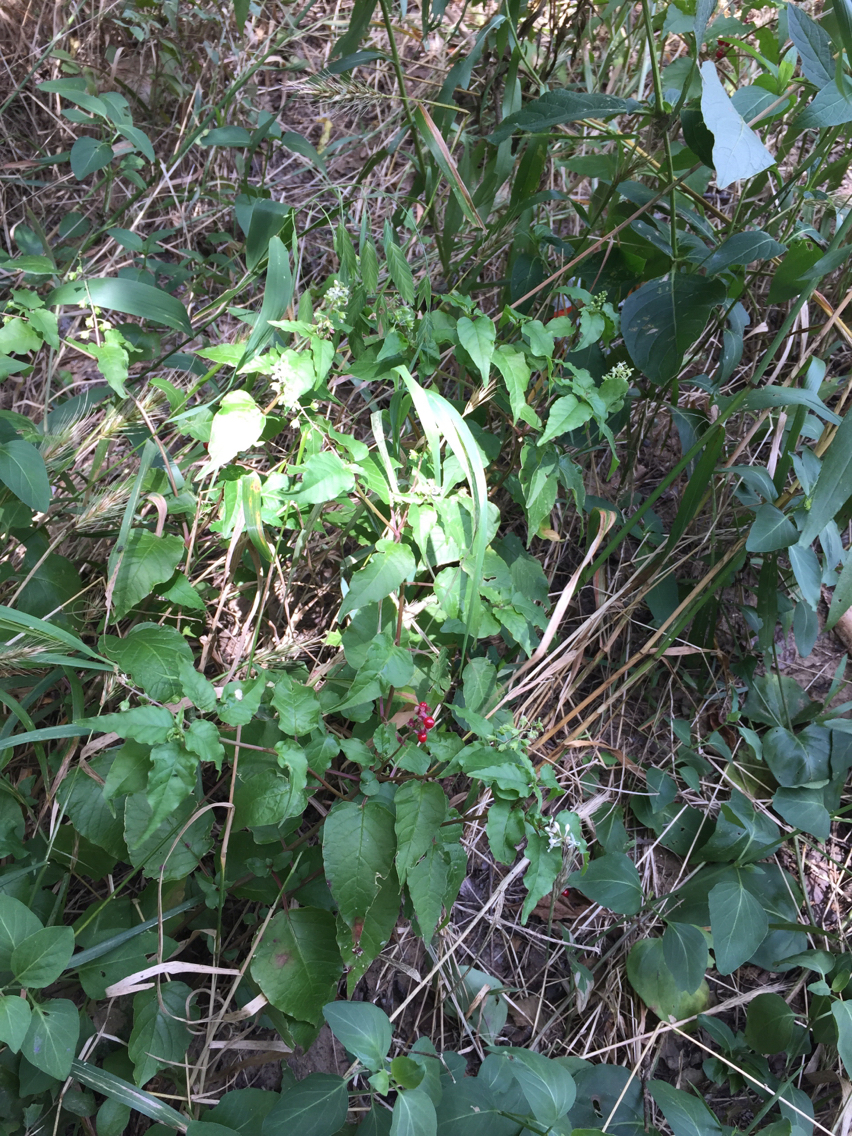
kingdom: Plantae
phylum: Tracheophyta
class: Magnoliopsida
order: Caryophyllales
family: Phytolaccaceae
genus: Rivina
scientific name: Rivina humilis
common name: Rougeplant
